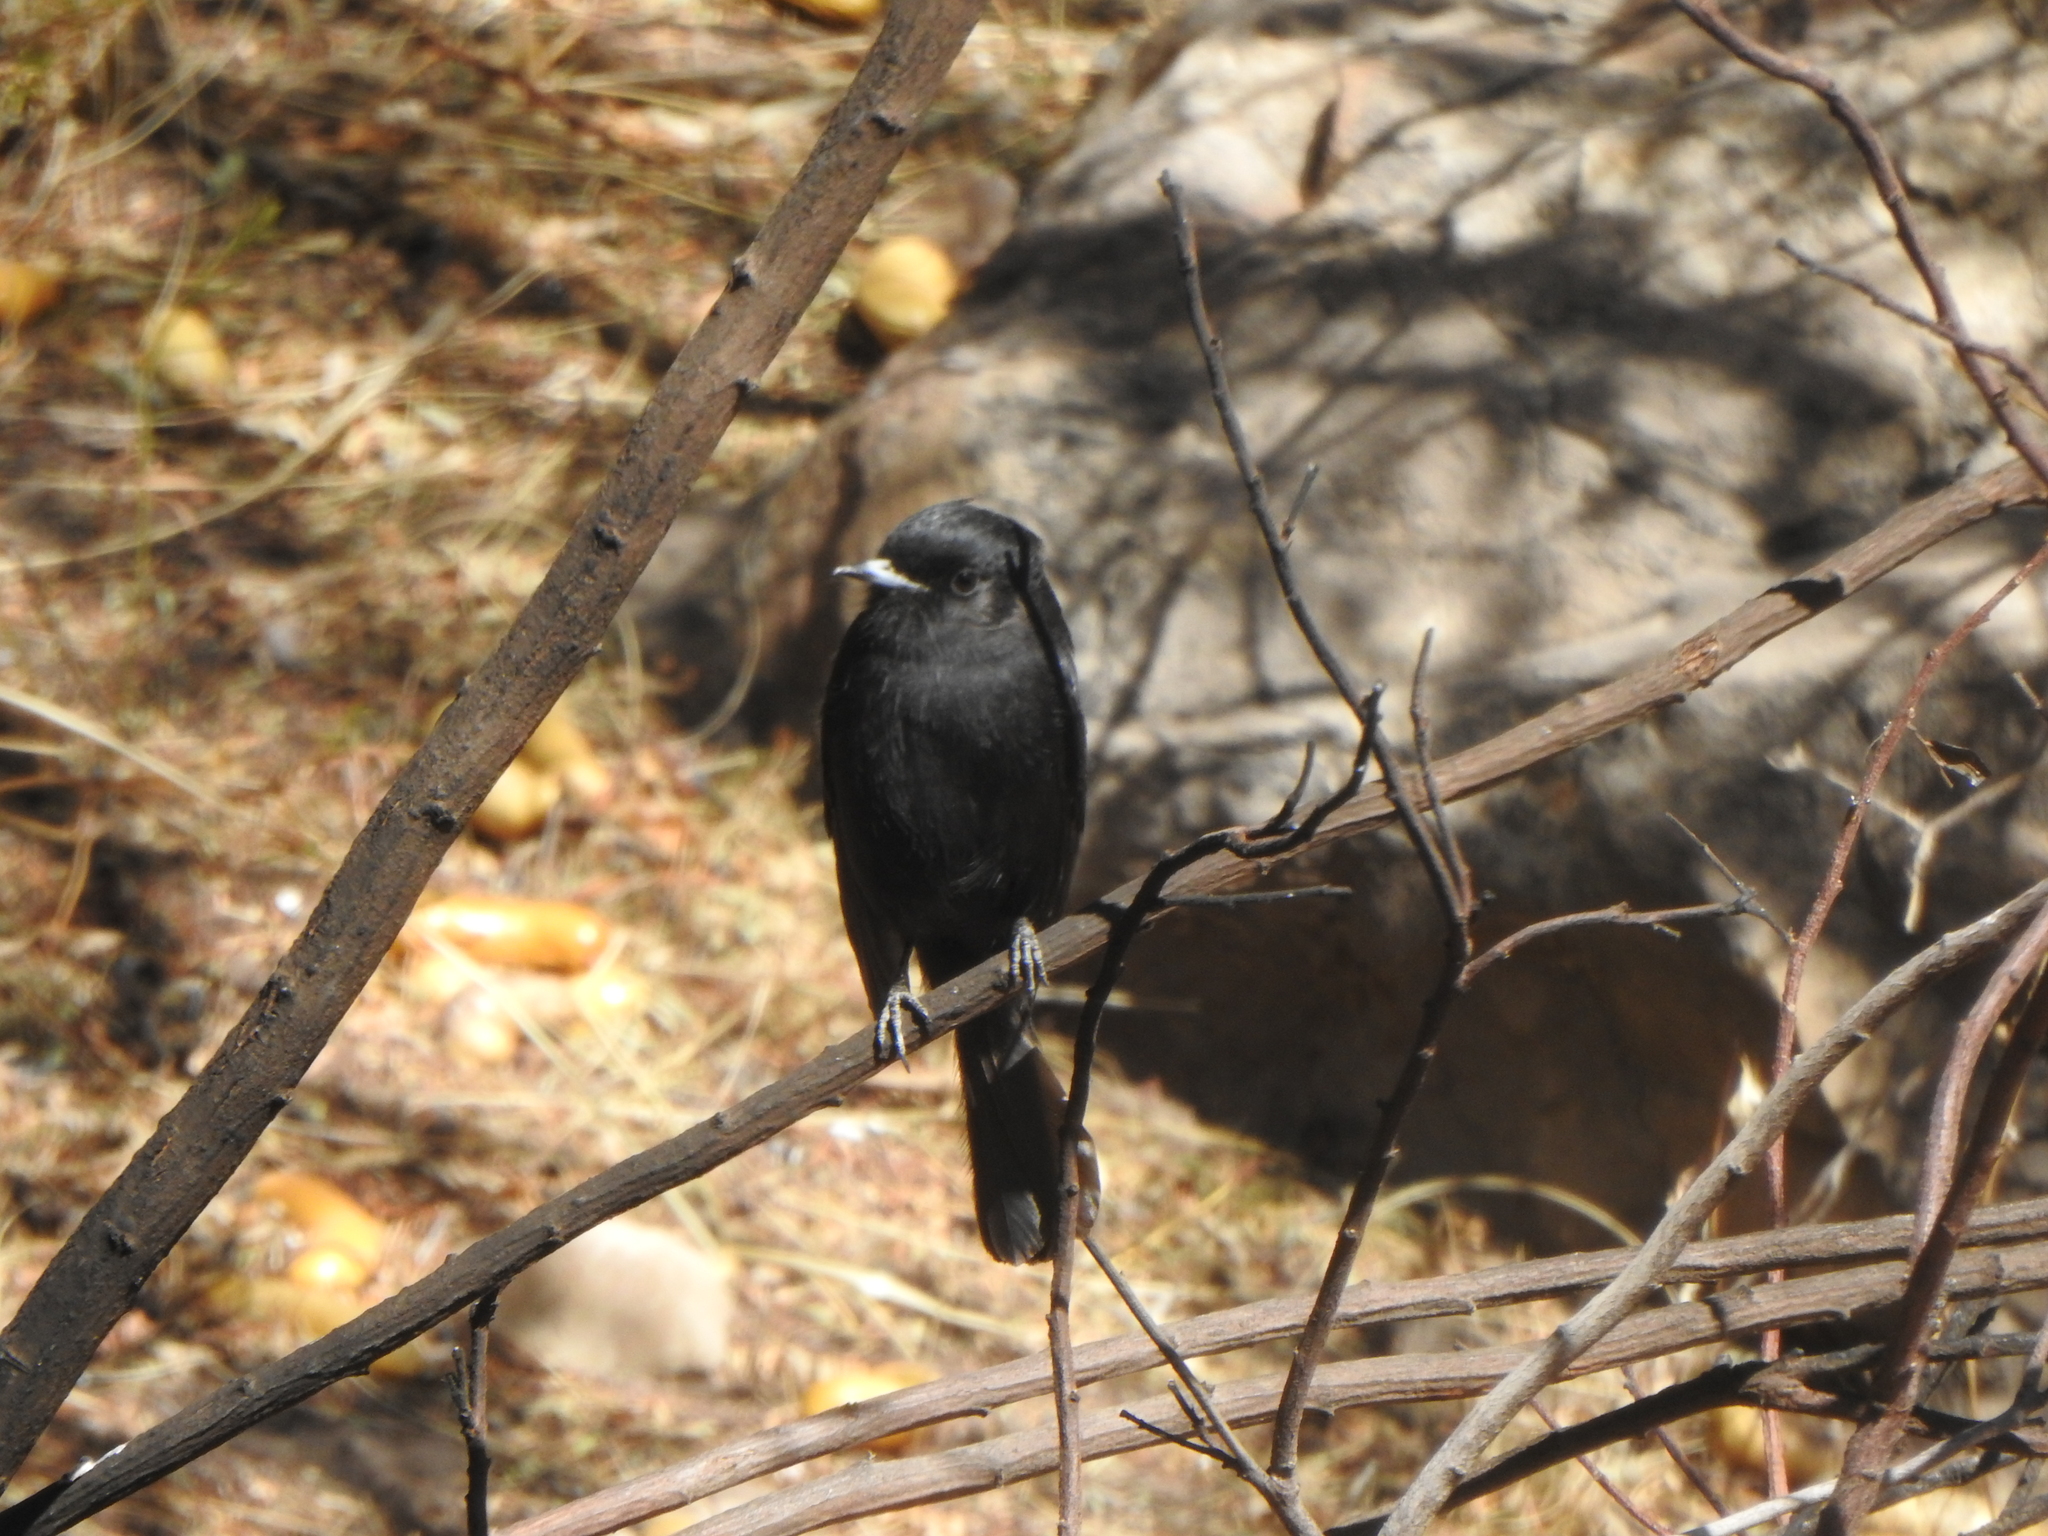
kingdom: Animalia
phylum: Chordata
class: Aves
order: Passeriformes
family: Tyrannidae
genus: Knipolegus
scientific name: Knipolegus aterrimus
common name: White-winged black tyrant
